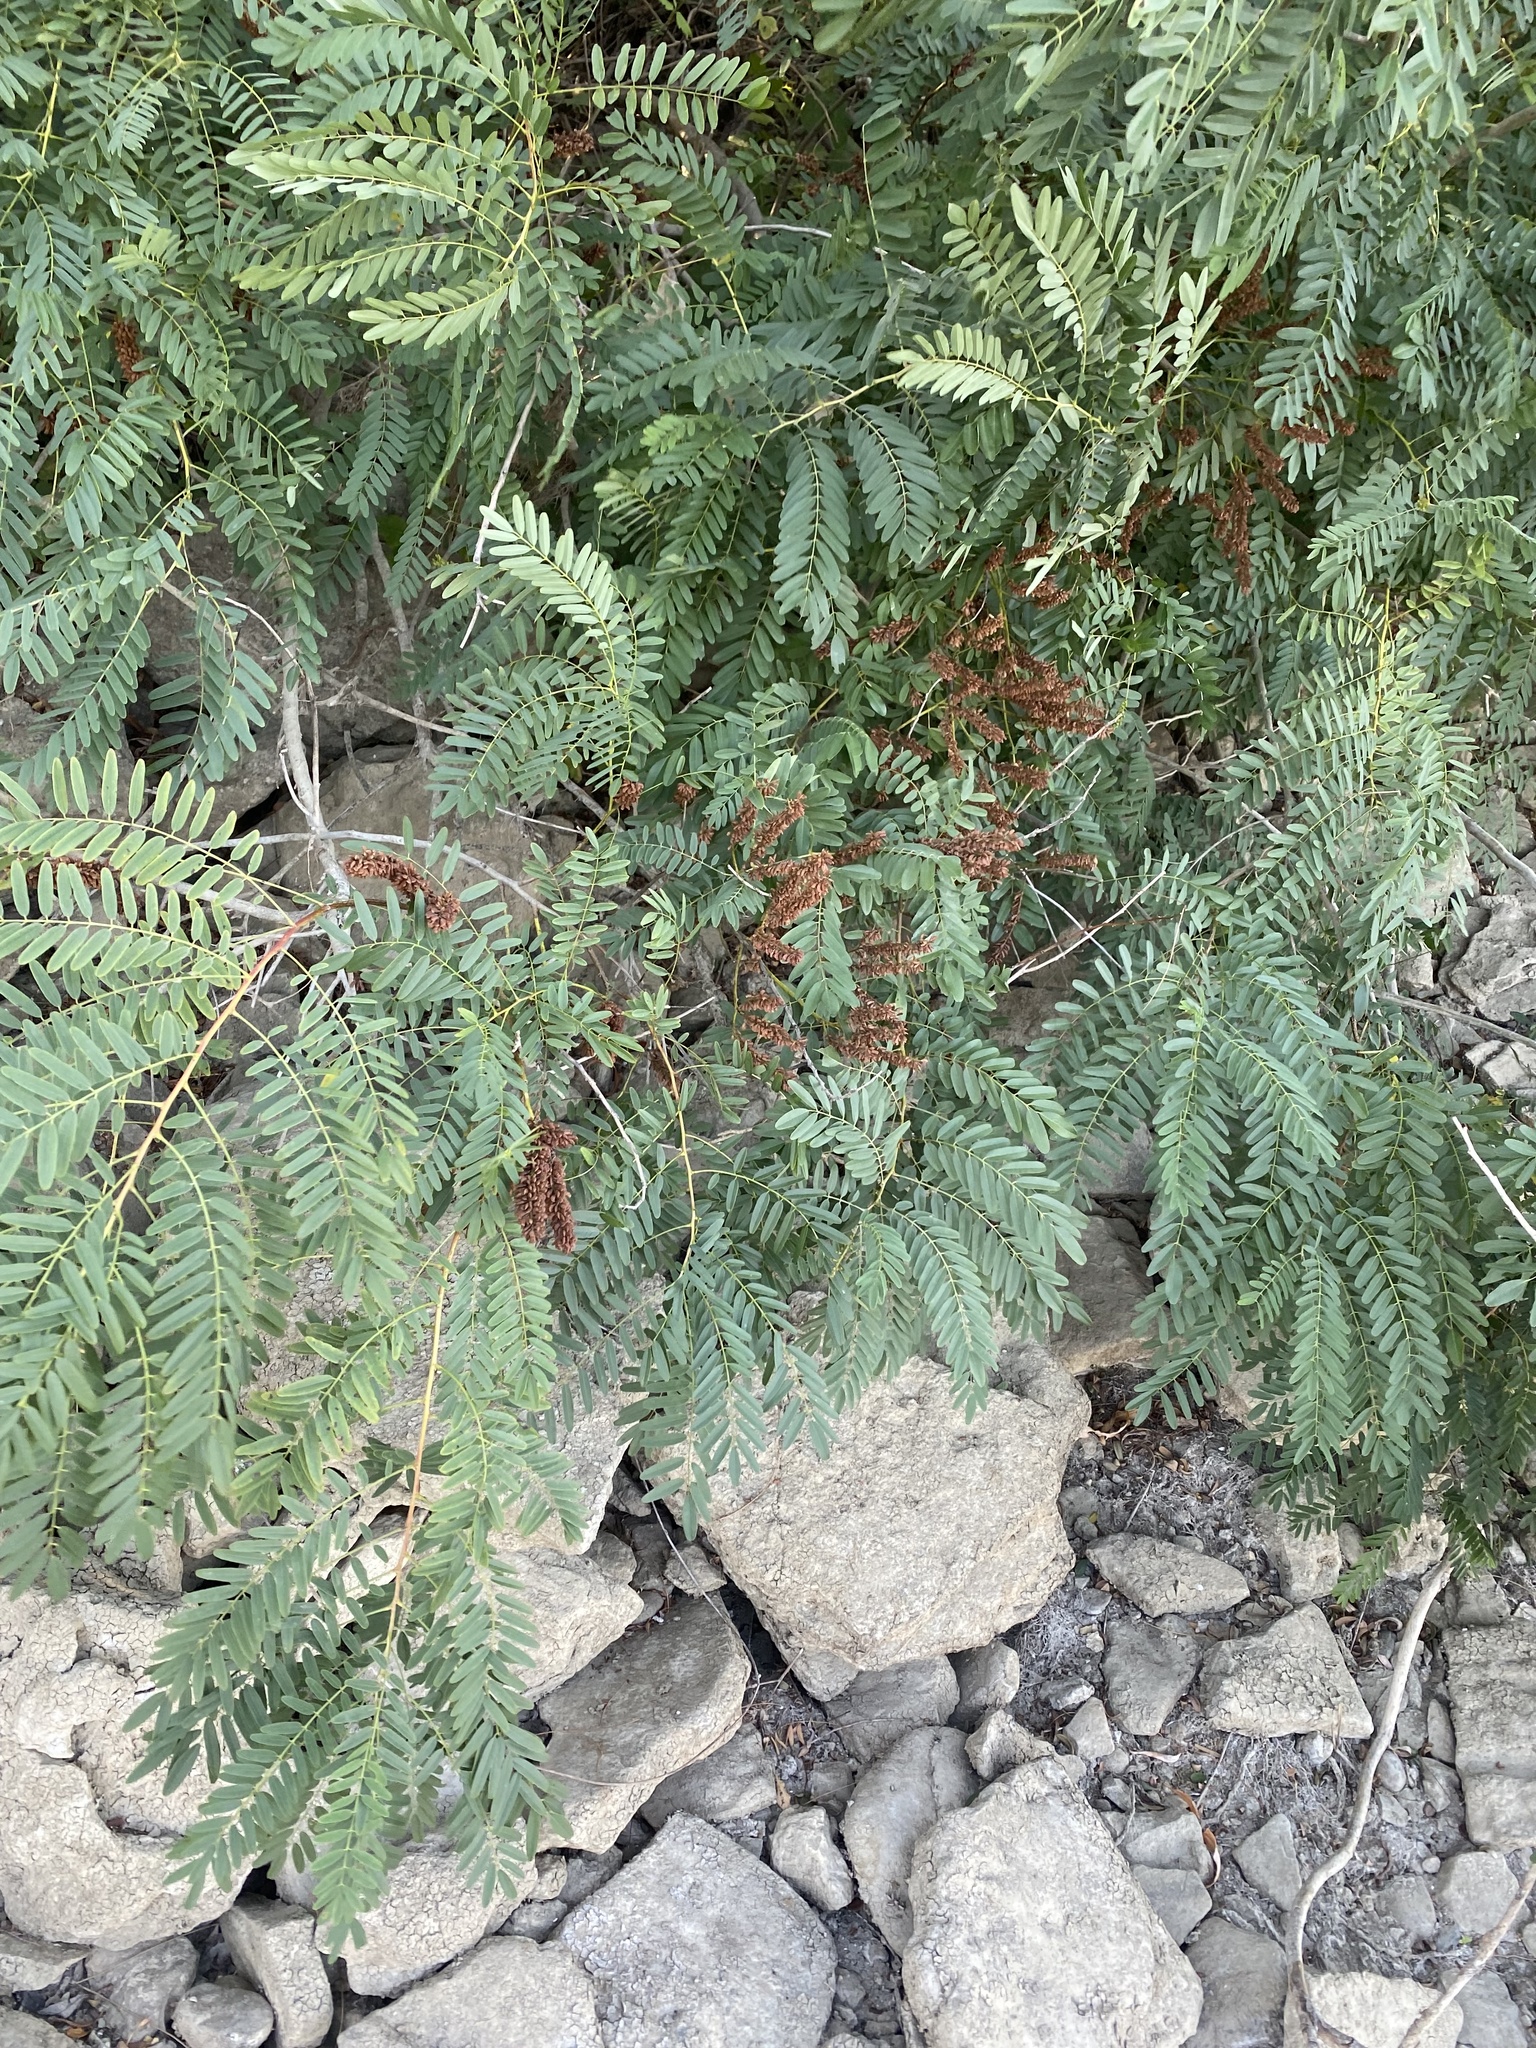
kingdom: Plantae
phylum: Tracheophyta
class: Magnoliopsida
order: Fabales
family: Fabaceae
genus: Amorpha
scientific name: Amorpha fruticosa
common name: False indigo
